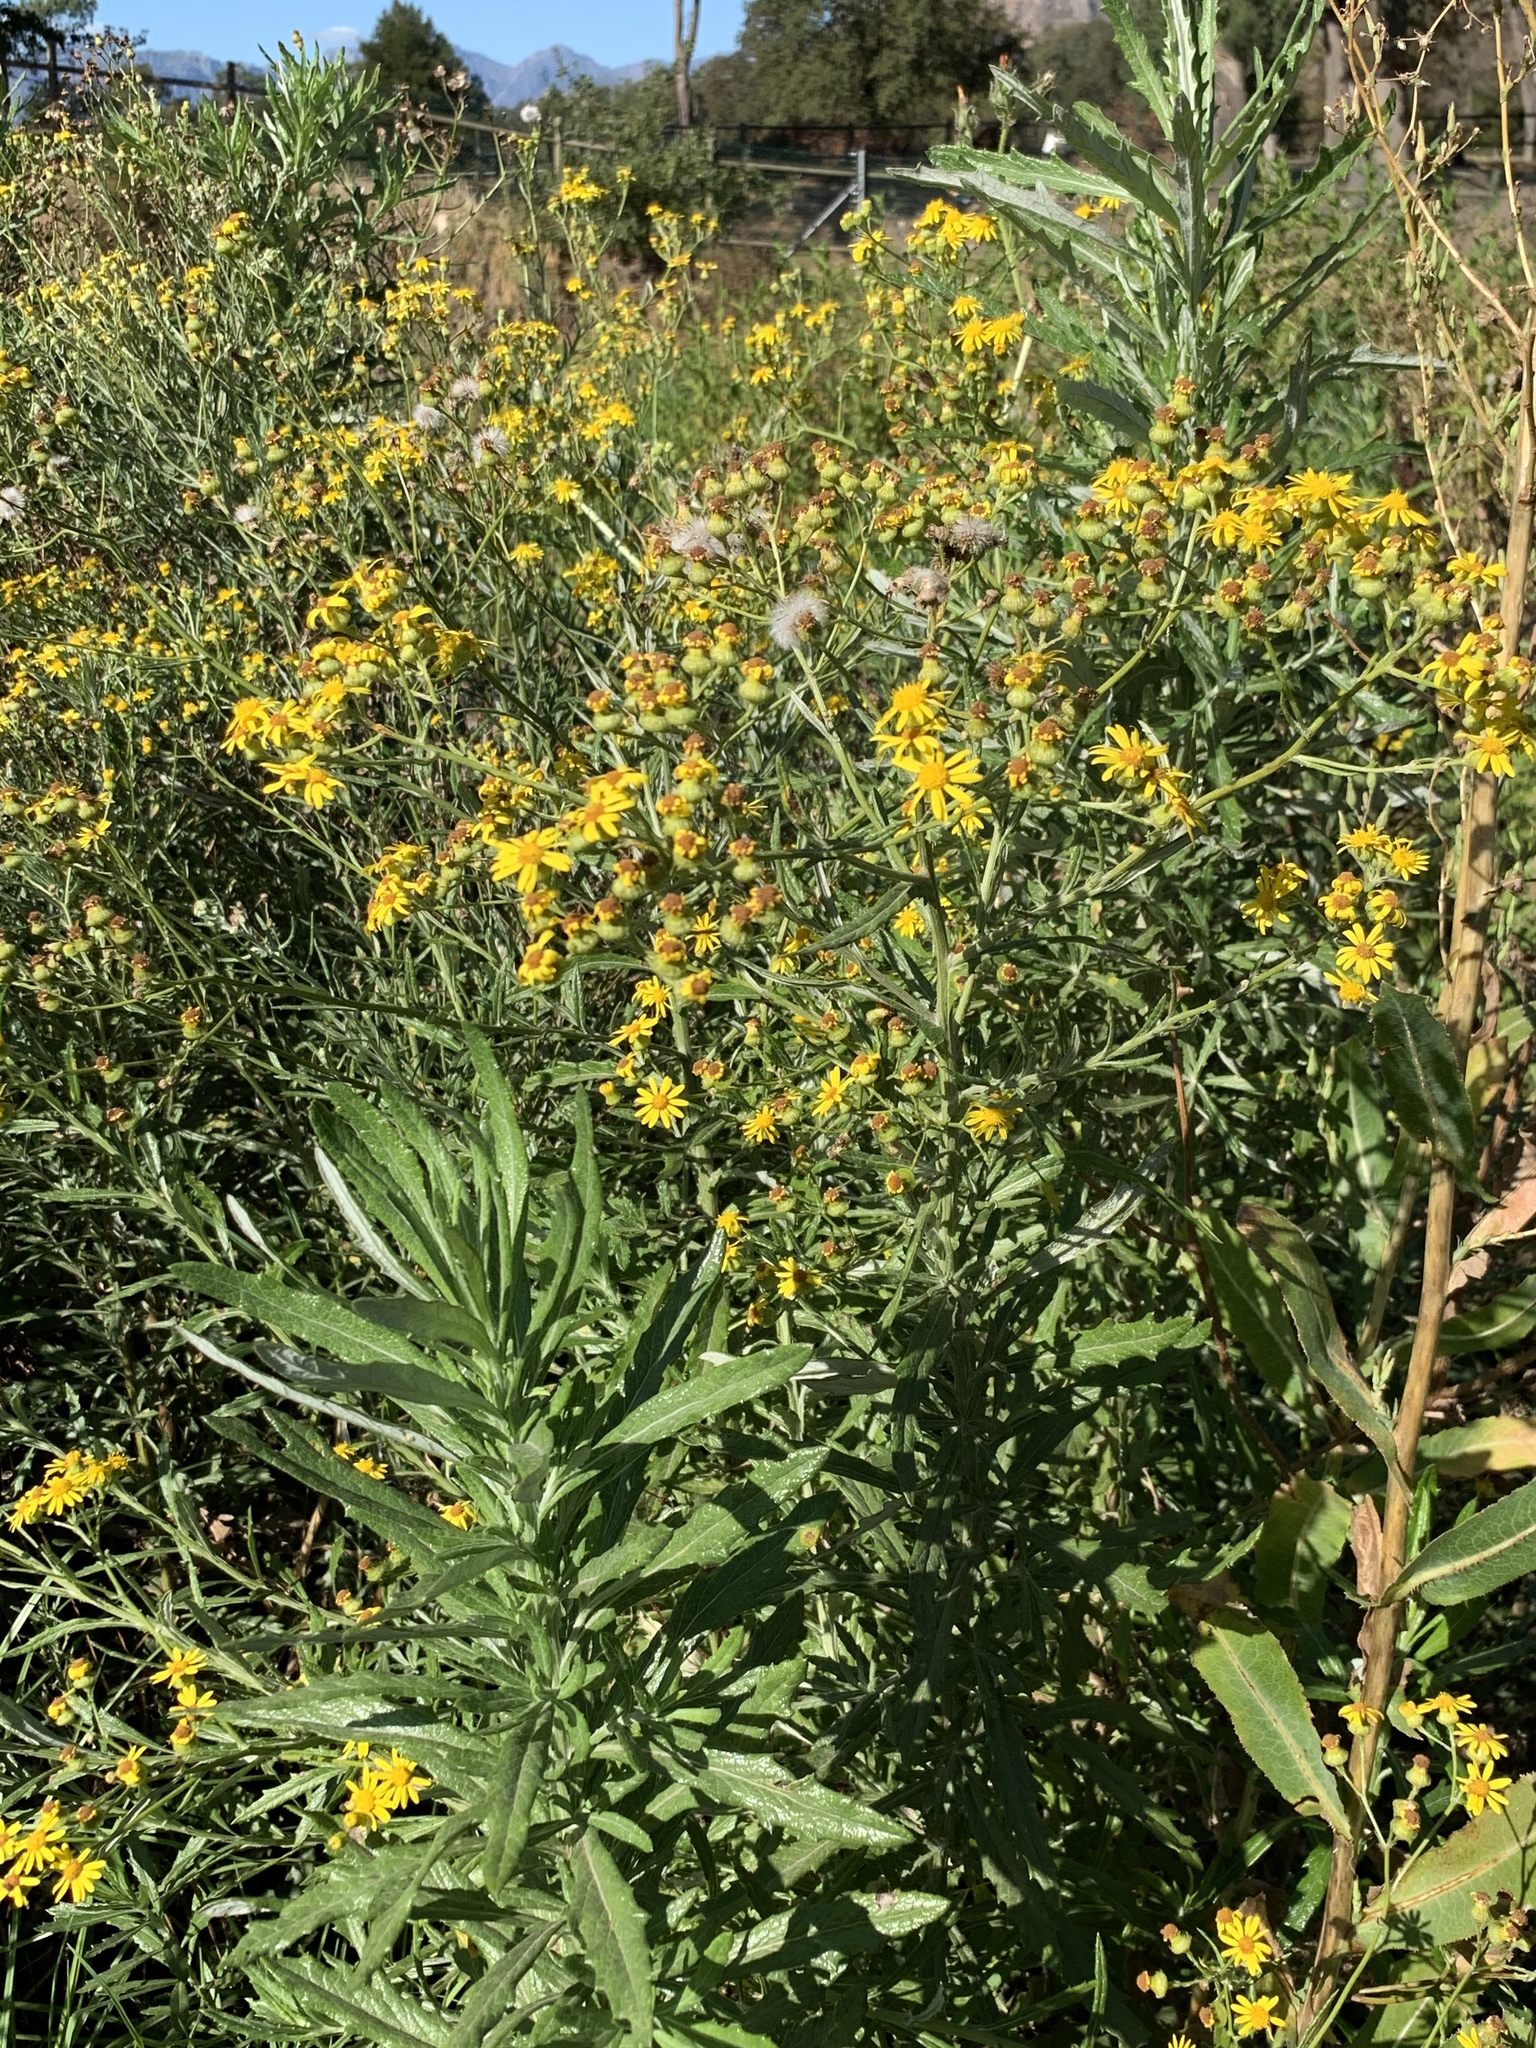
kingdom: Plantae
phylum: Tracheophyta
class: Magnoliopsida
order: Asterales
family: Asteraceae
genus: Senecio
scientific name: Senecio pterophorus
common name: Shoddy ragwort
